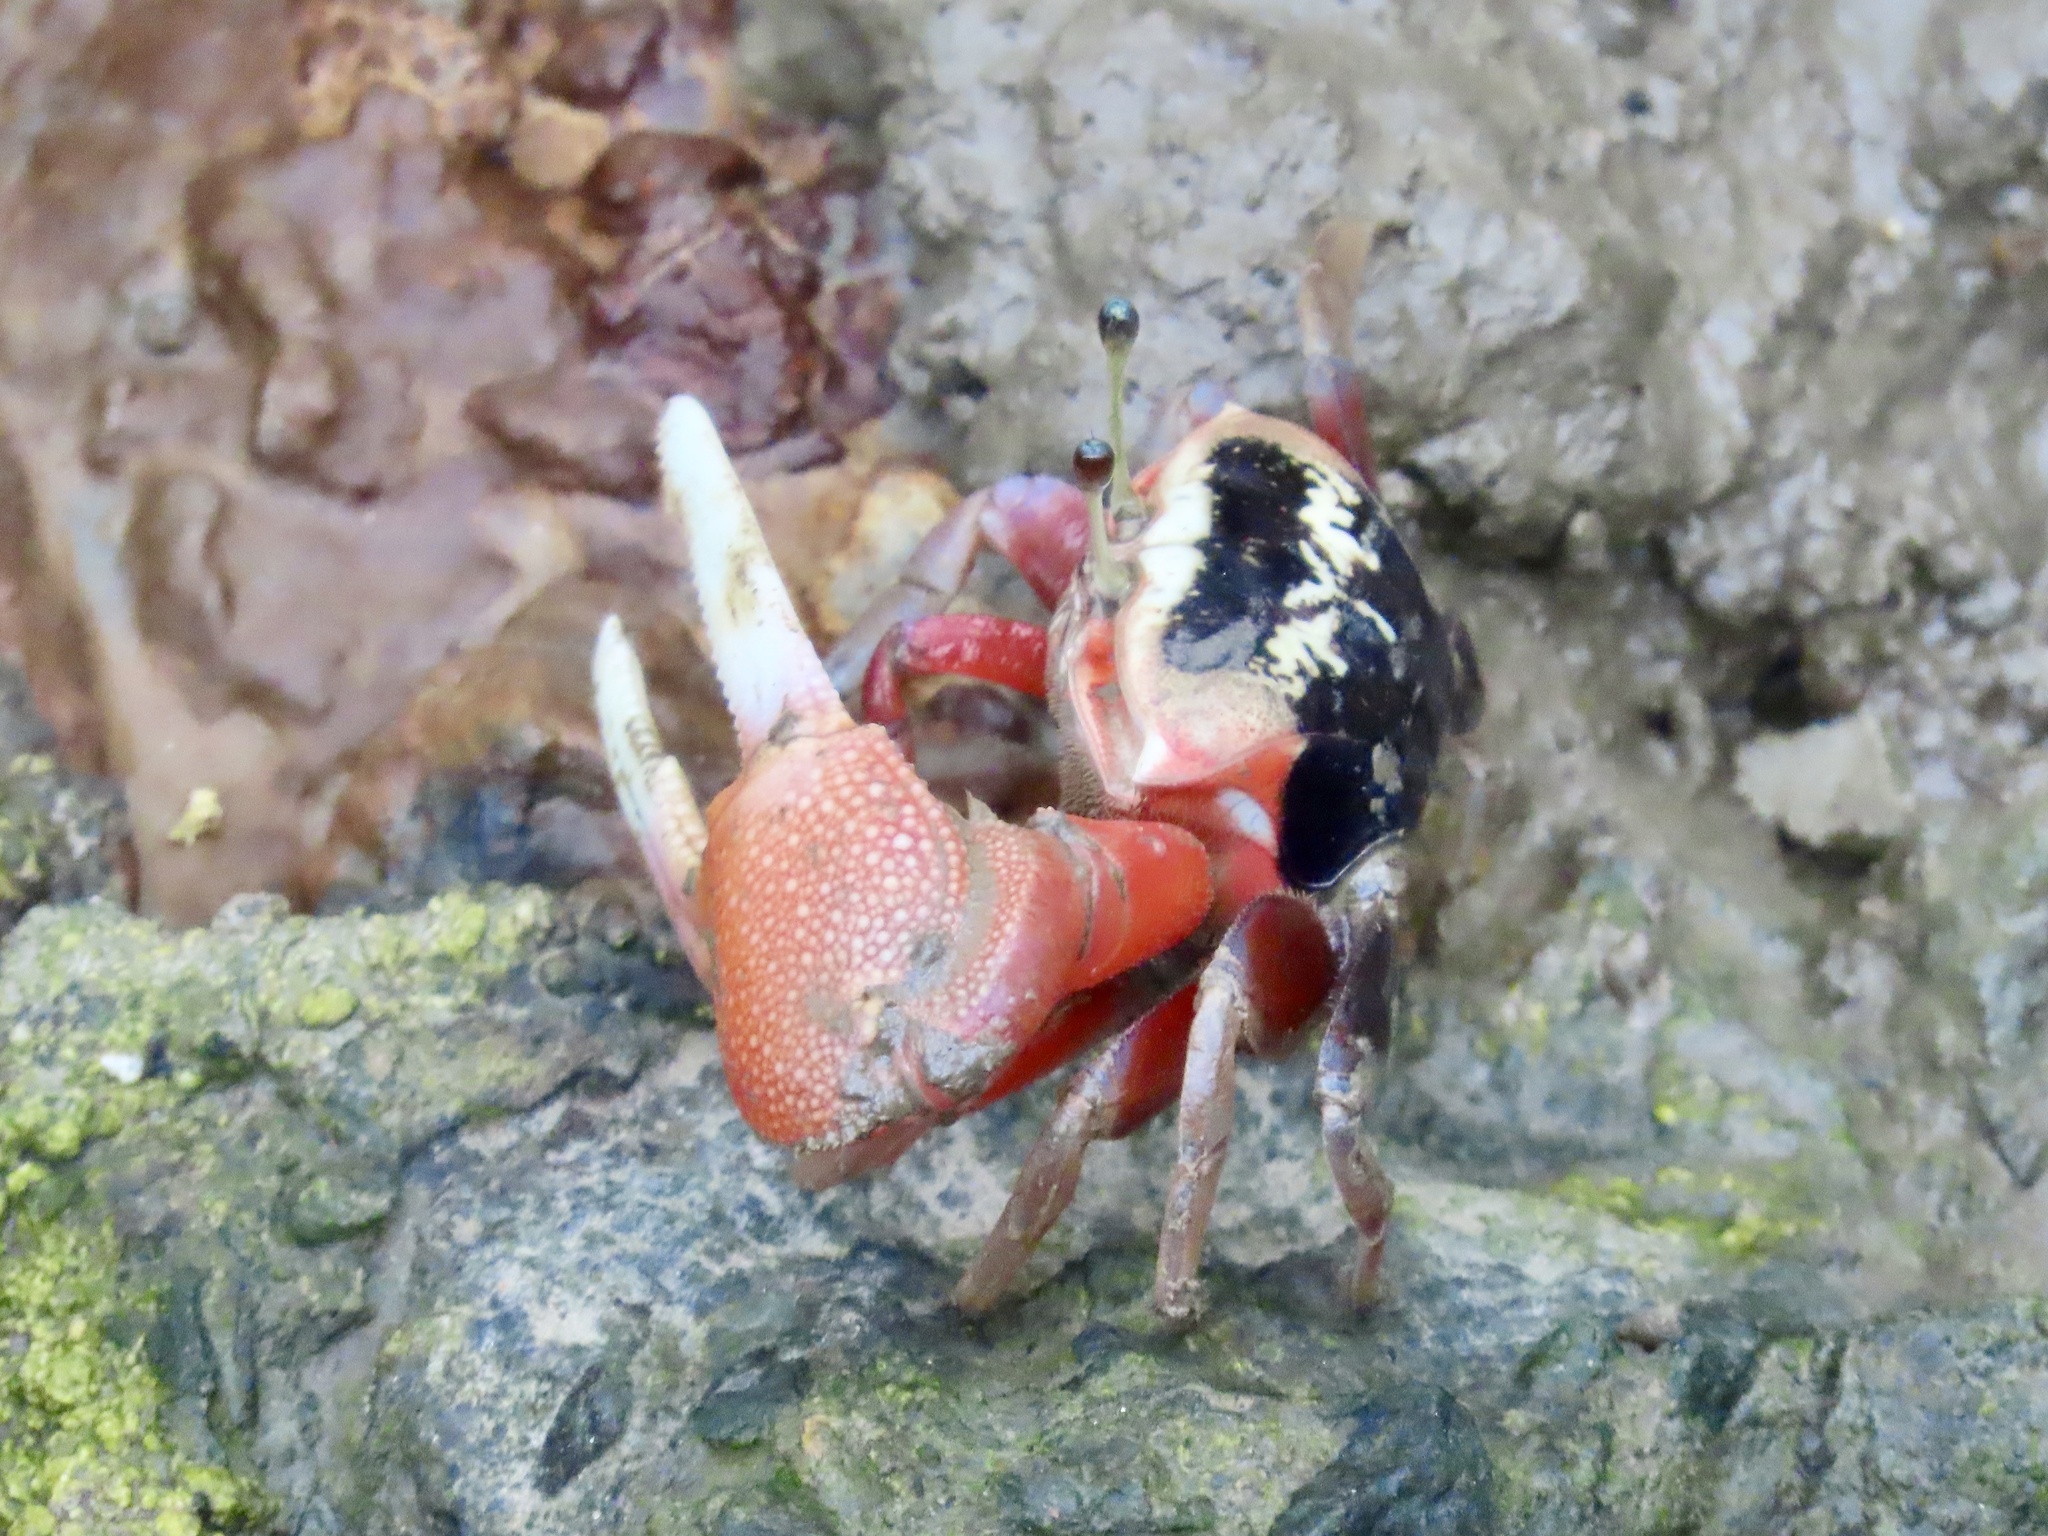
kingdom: Animalia
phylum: Arthropoda
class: Malacostraca
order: Decapoda
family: Ocypodidae
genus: Tubuca
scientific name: Tubuca arcuata
